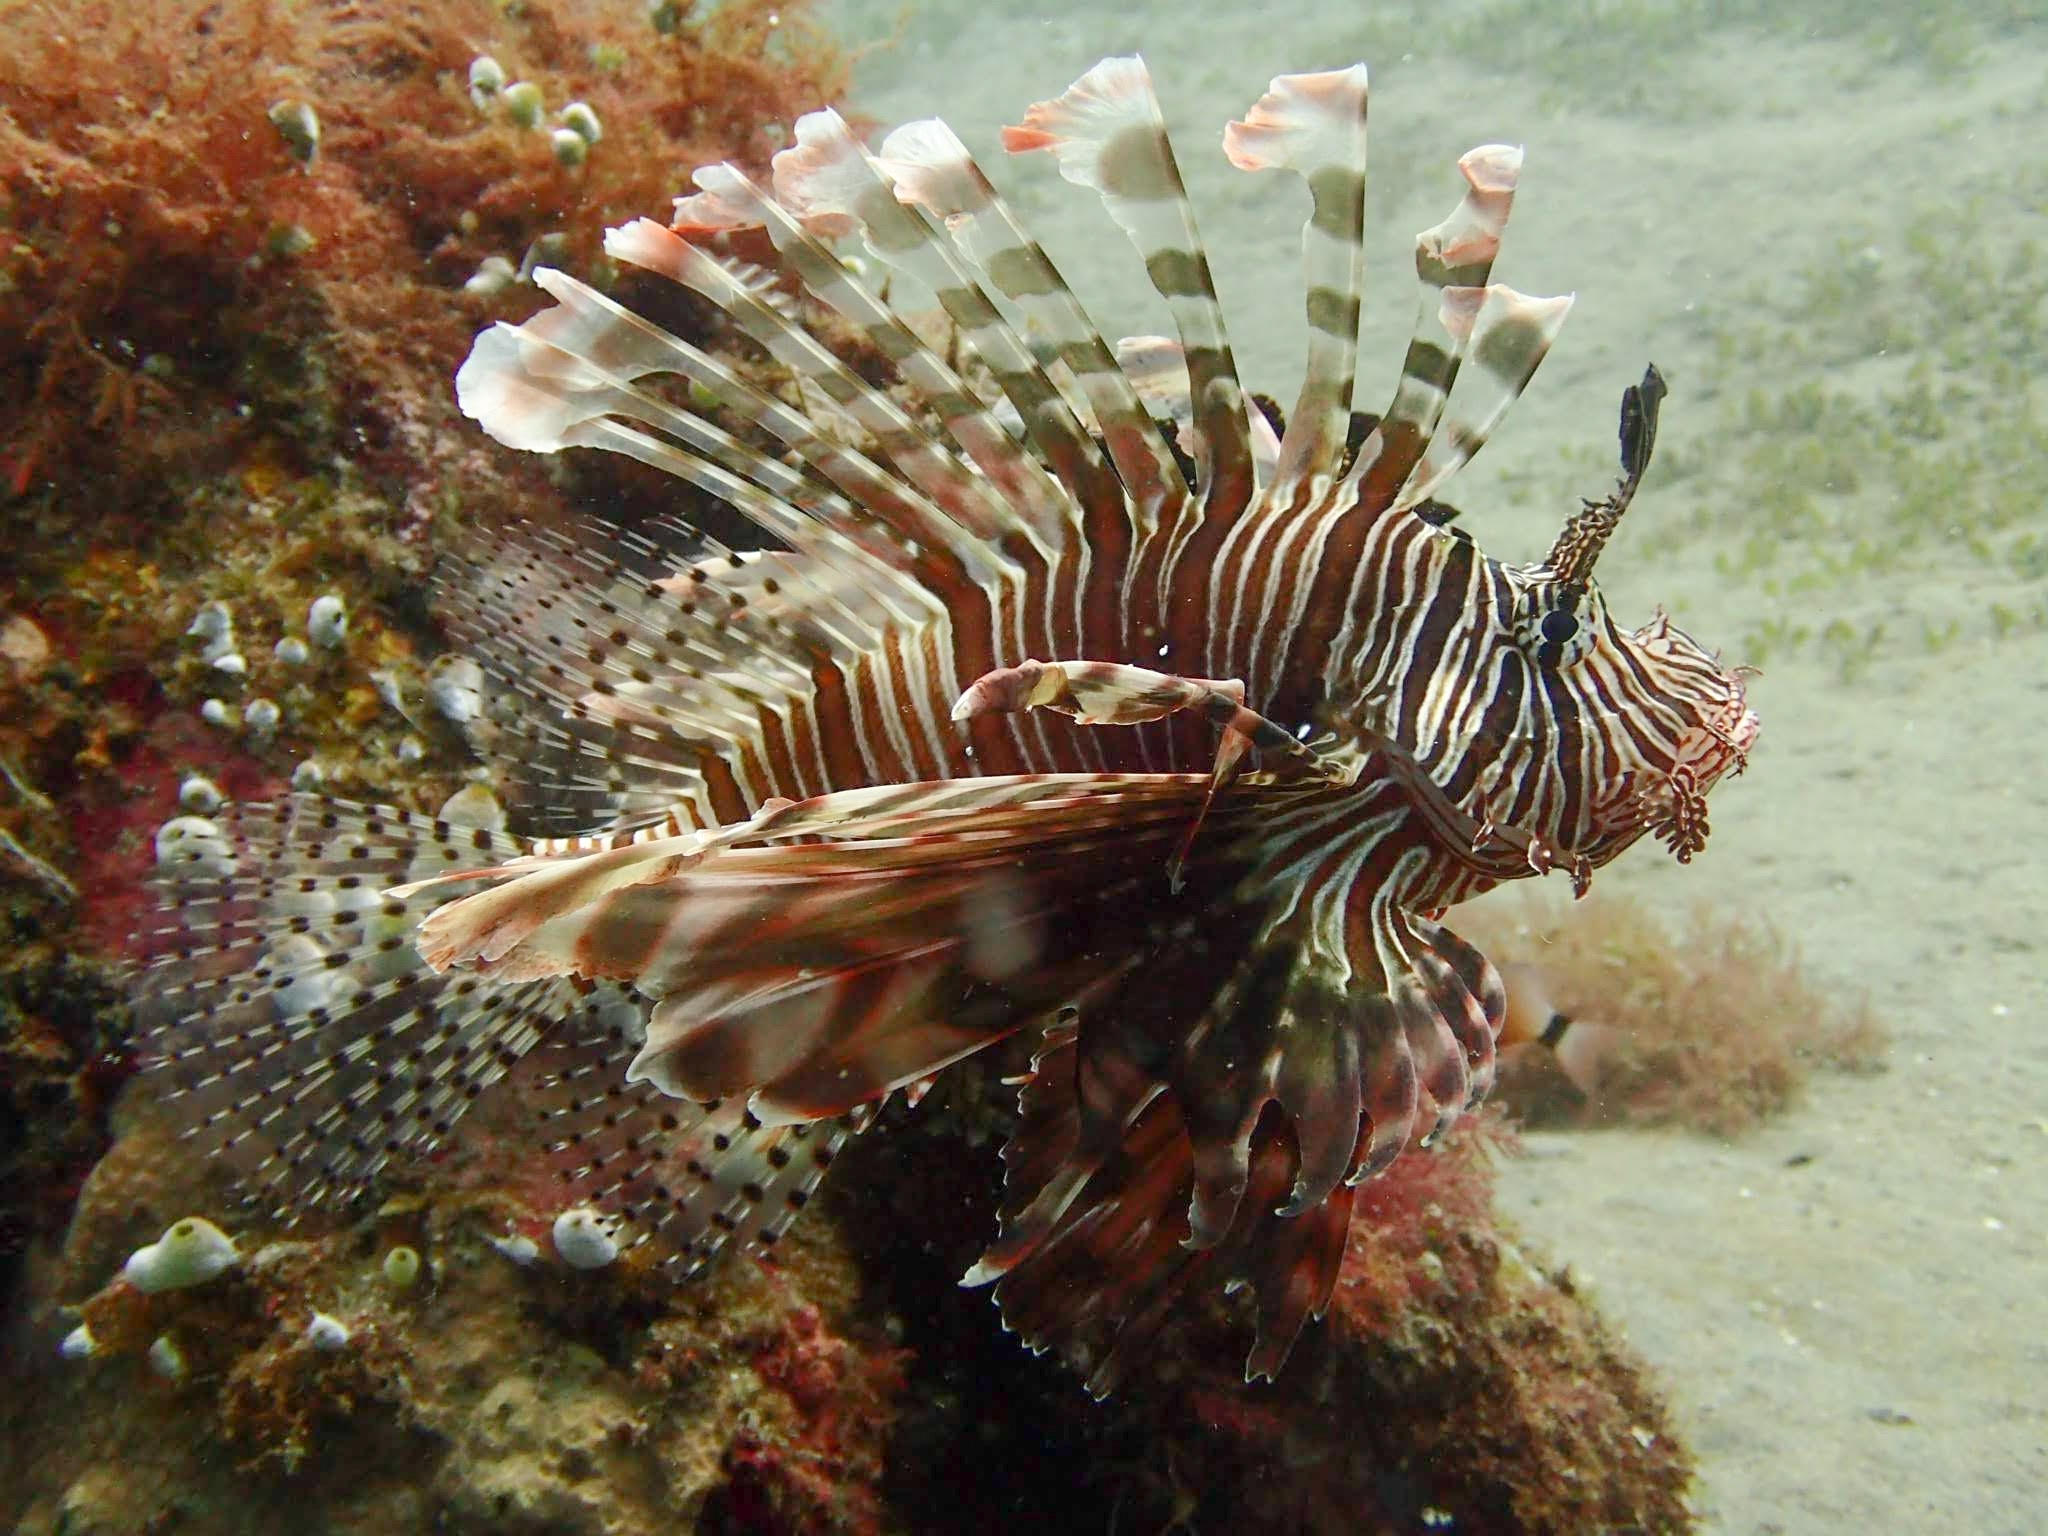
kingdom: Animalia
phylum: Chordata
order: Scorpaeniformes
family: Scorpaenidae
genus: Pterois
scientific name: Pterois volitans
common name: Lionfish
